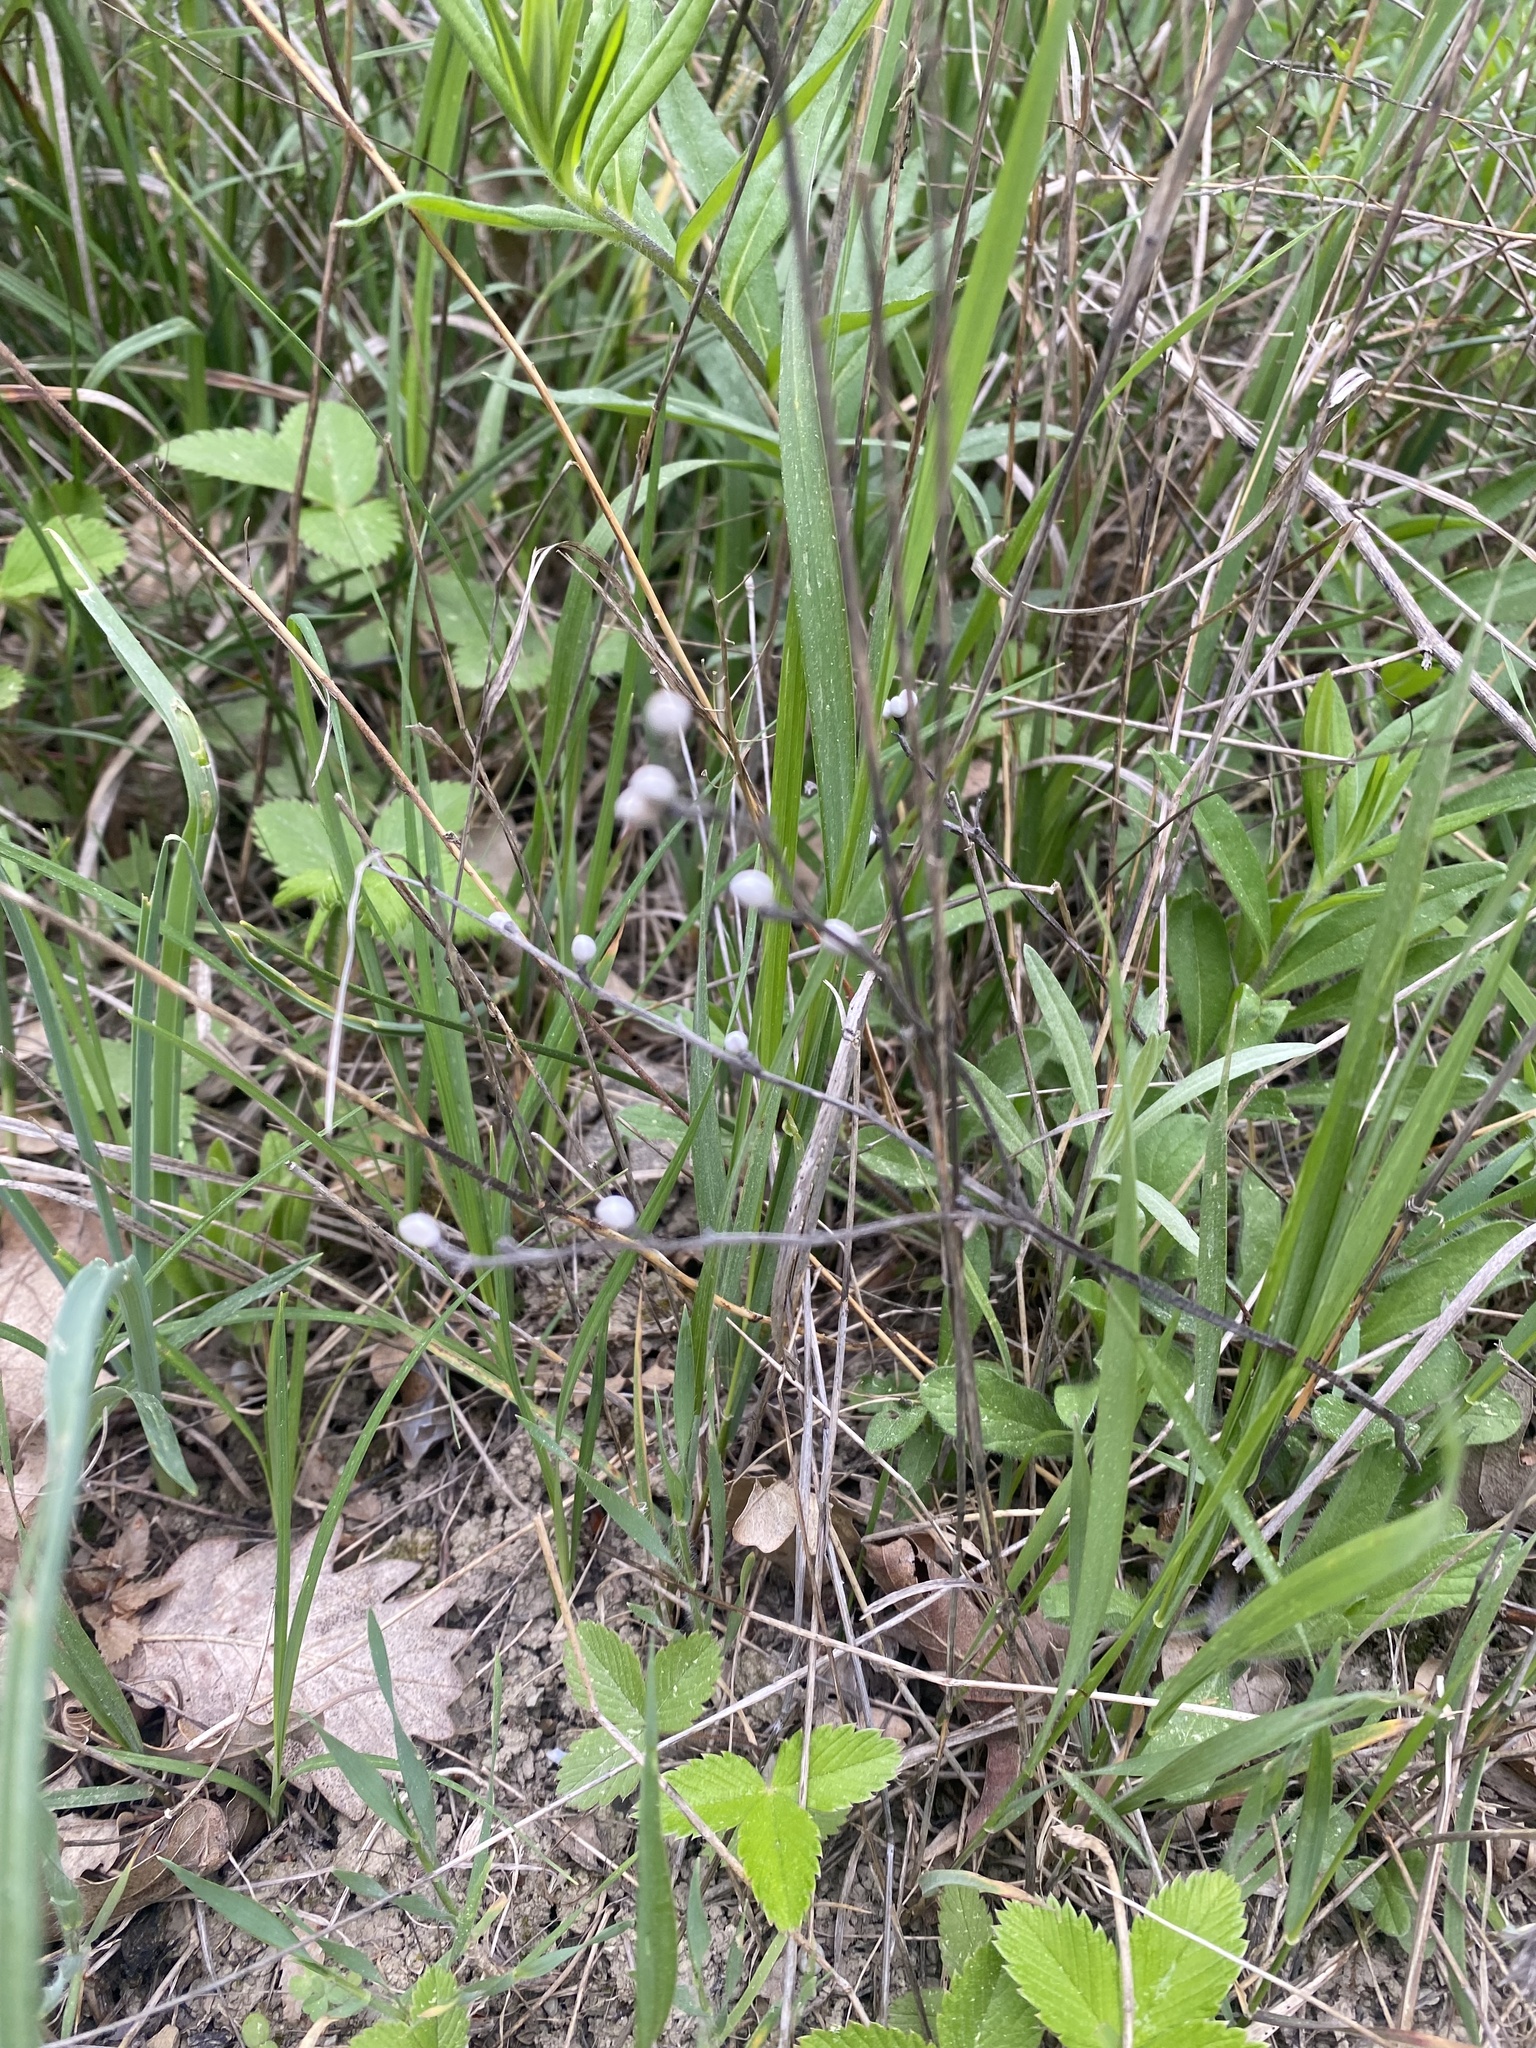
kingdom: Plantae
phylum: Tracheophyta
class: Magnoliopsida
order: Boraginales
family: Boraginaceae
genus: Aegonychon
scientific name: Aegonychon purpurocaeruleum
